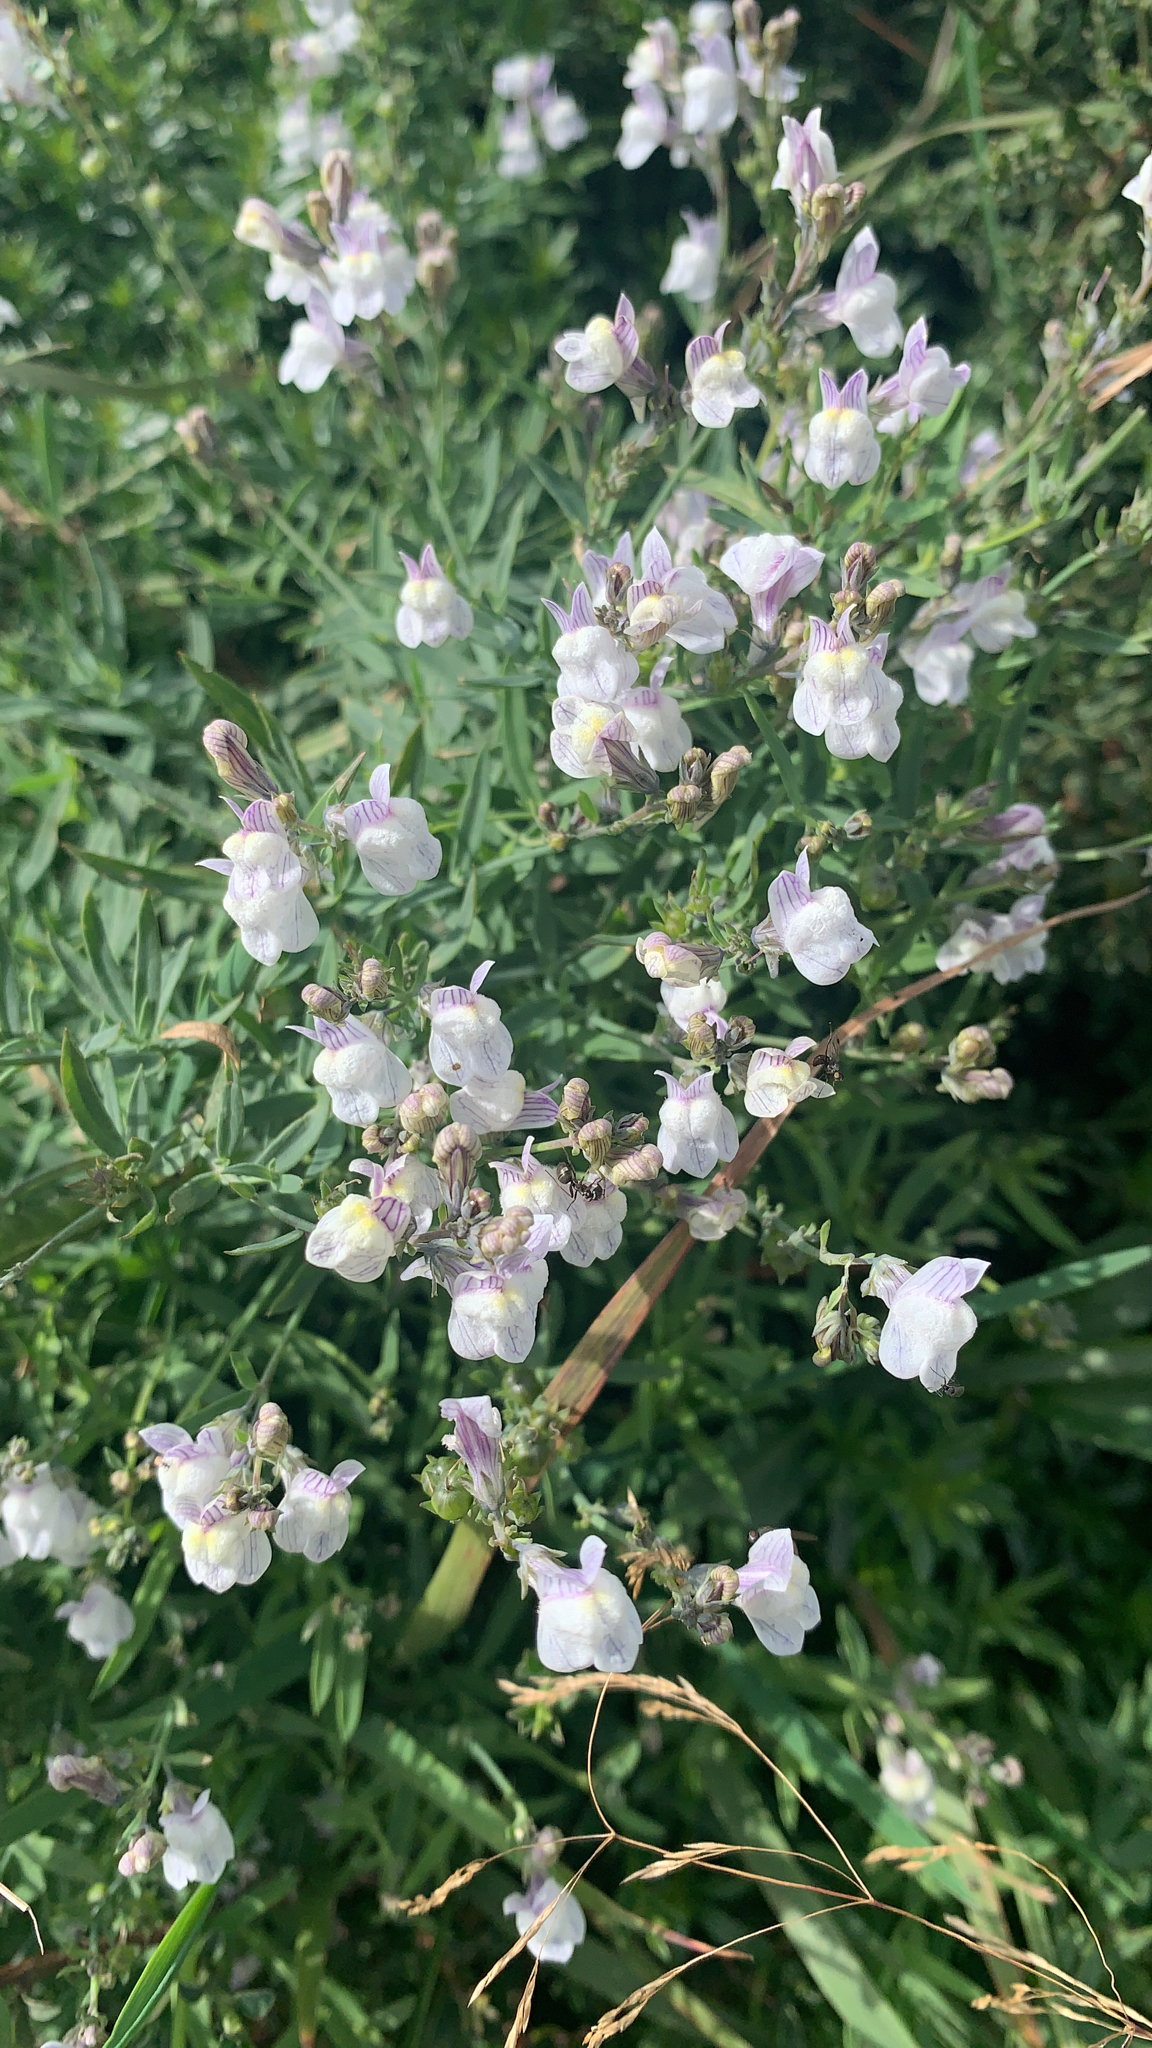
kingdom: Plantae
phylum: Tracheophyta
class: Magnoliopsida
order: Lamiales
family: Plantaginaceae
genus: Linaria
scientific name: Linaria repens
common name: Pale toadflax
